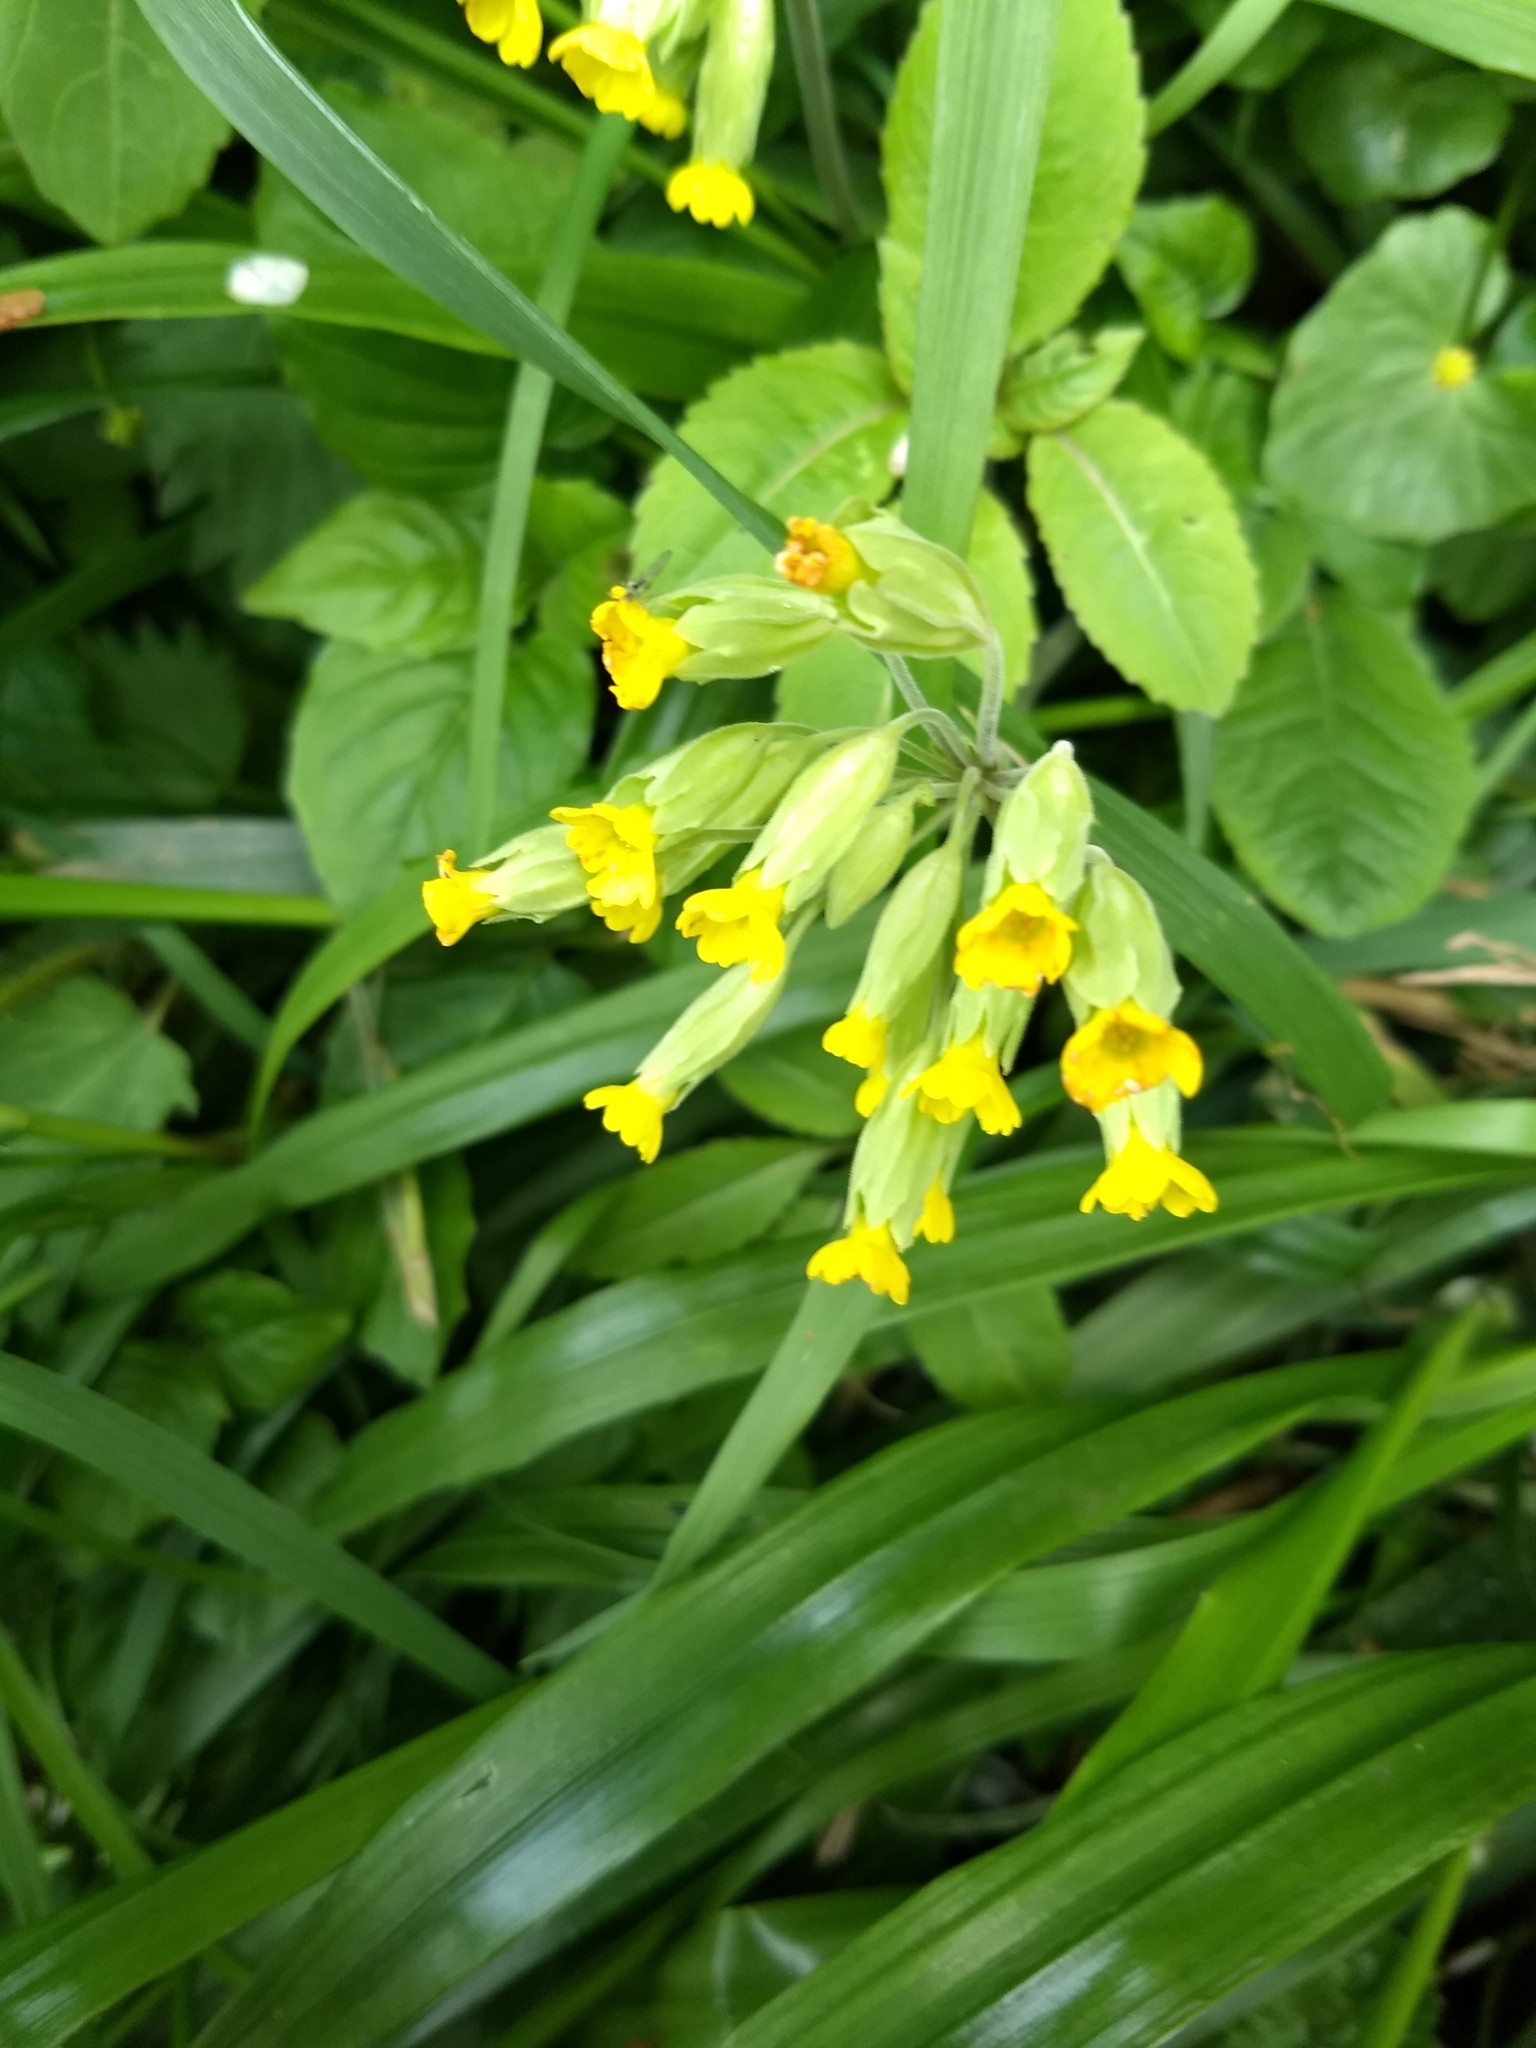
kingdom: Plantae
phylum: Tracheophyta
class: Magnoliopsida
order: Ericales
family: Primulaceae
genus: Primula
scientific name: Primula veris
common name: Cowslip
